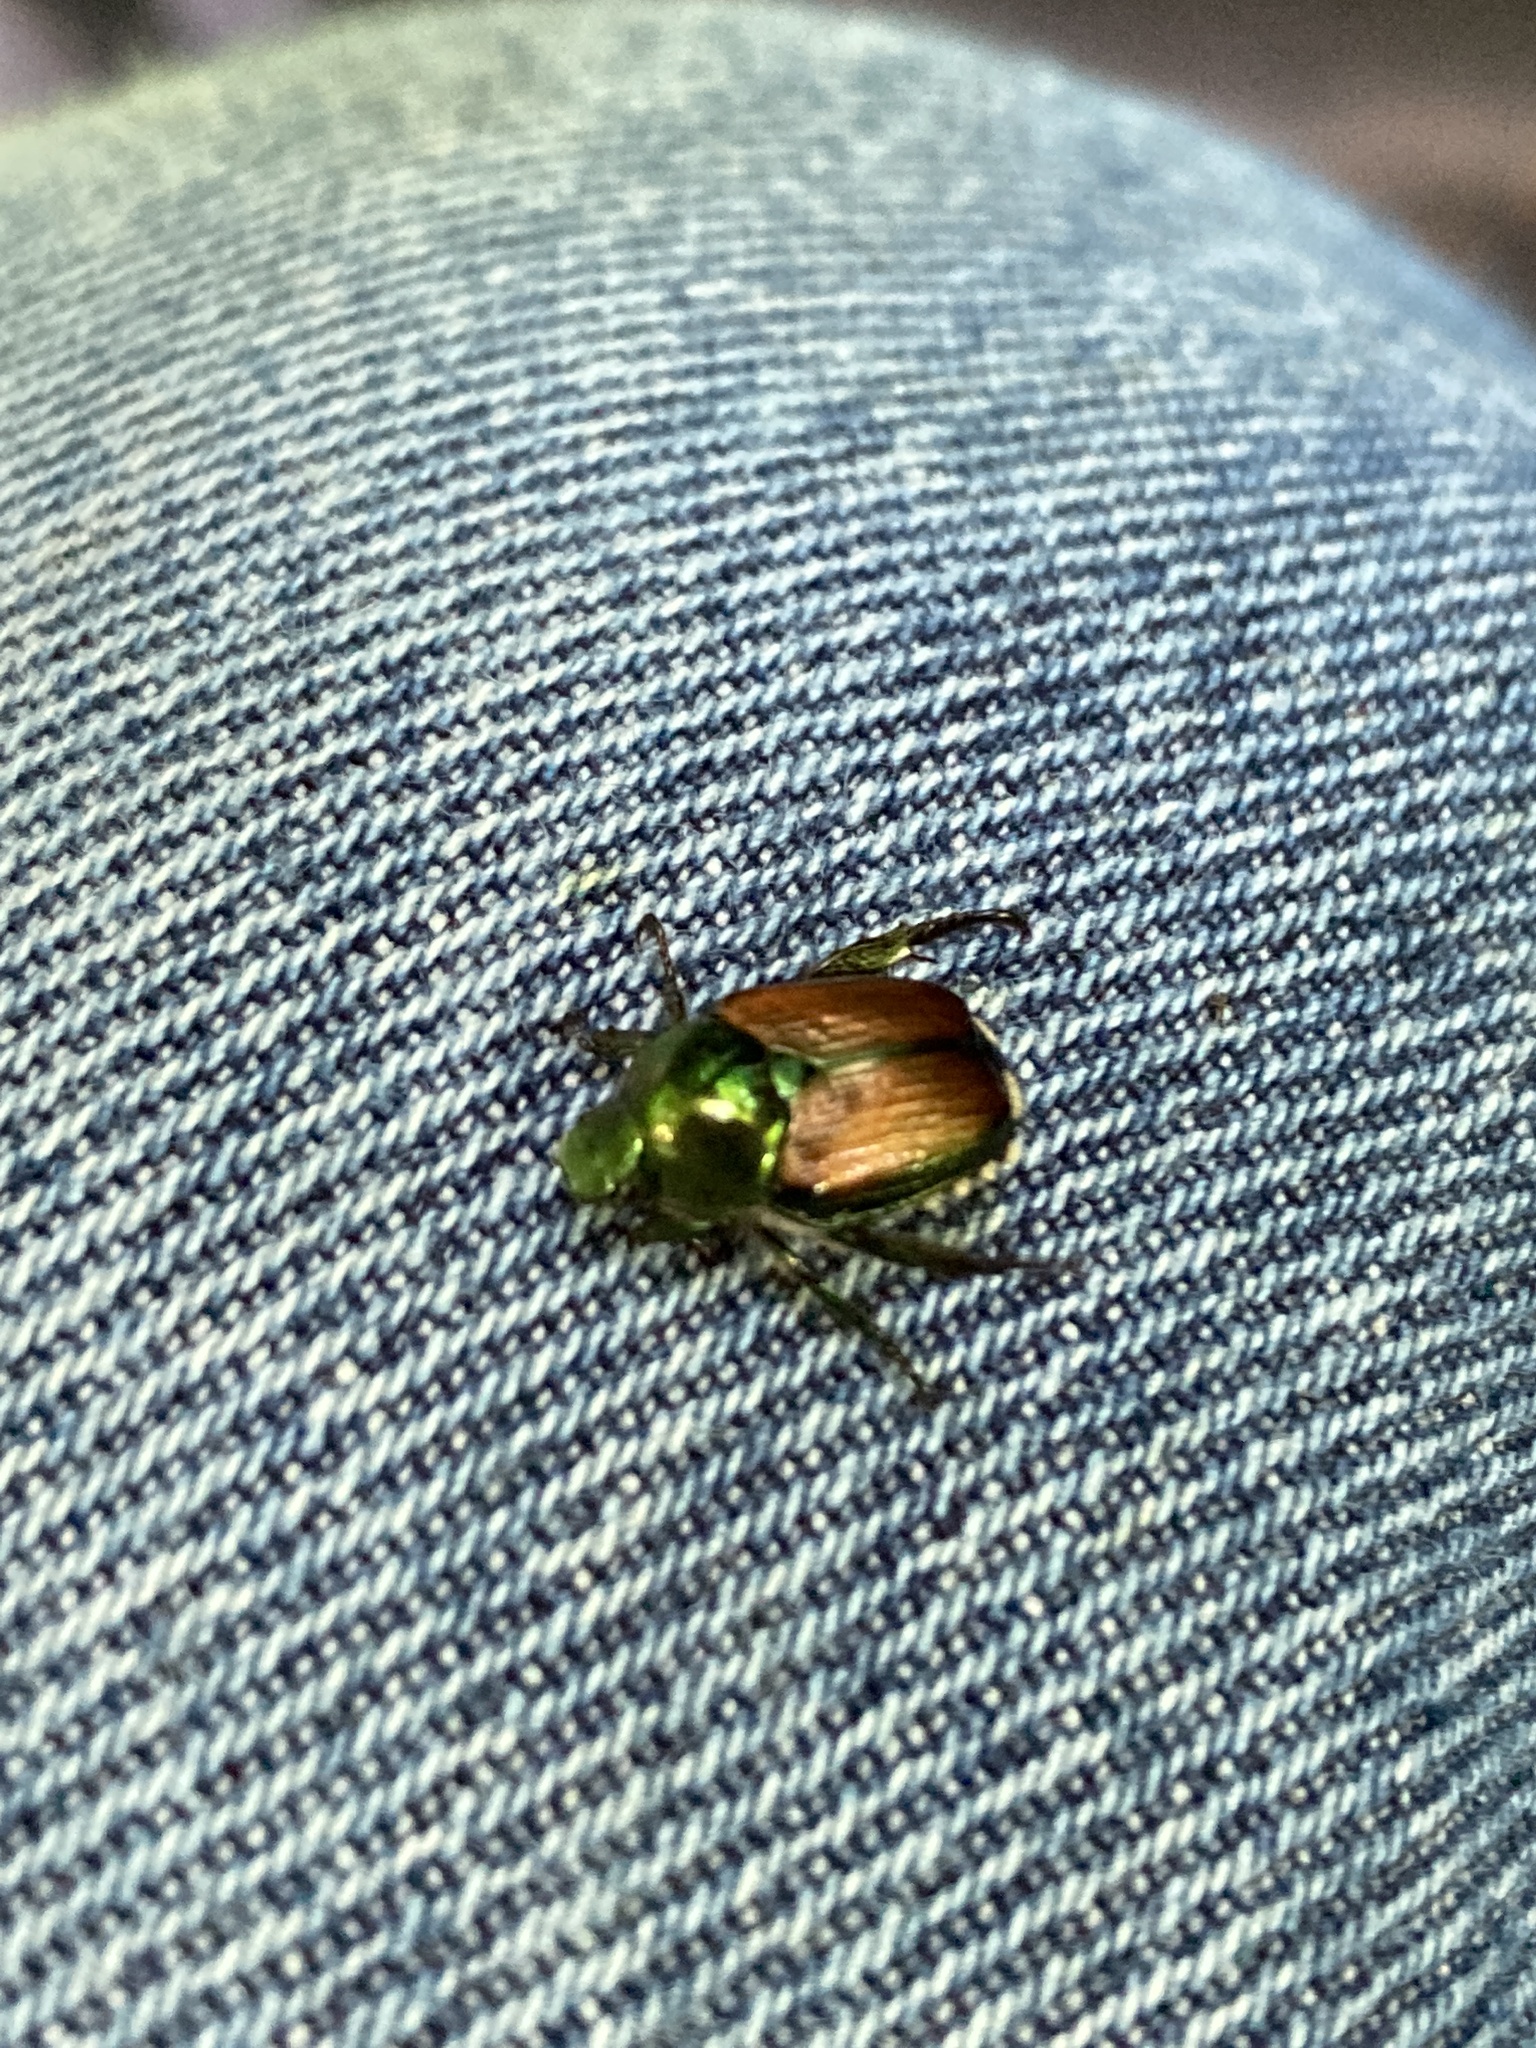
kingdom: Animalia
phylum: Arthropoda
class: Insecta
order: Coleoptera
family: Scarabaeidae
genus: Popillia
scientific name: Popillia japonica
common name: Japanese beetle
